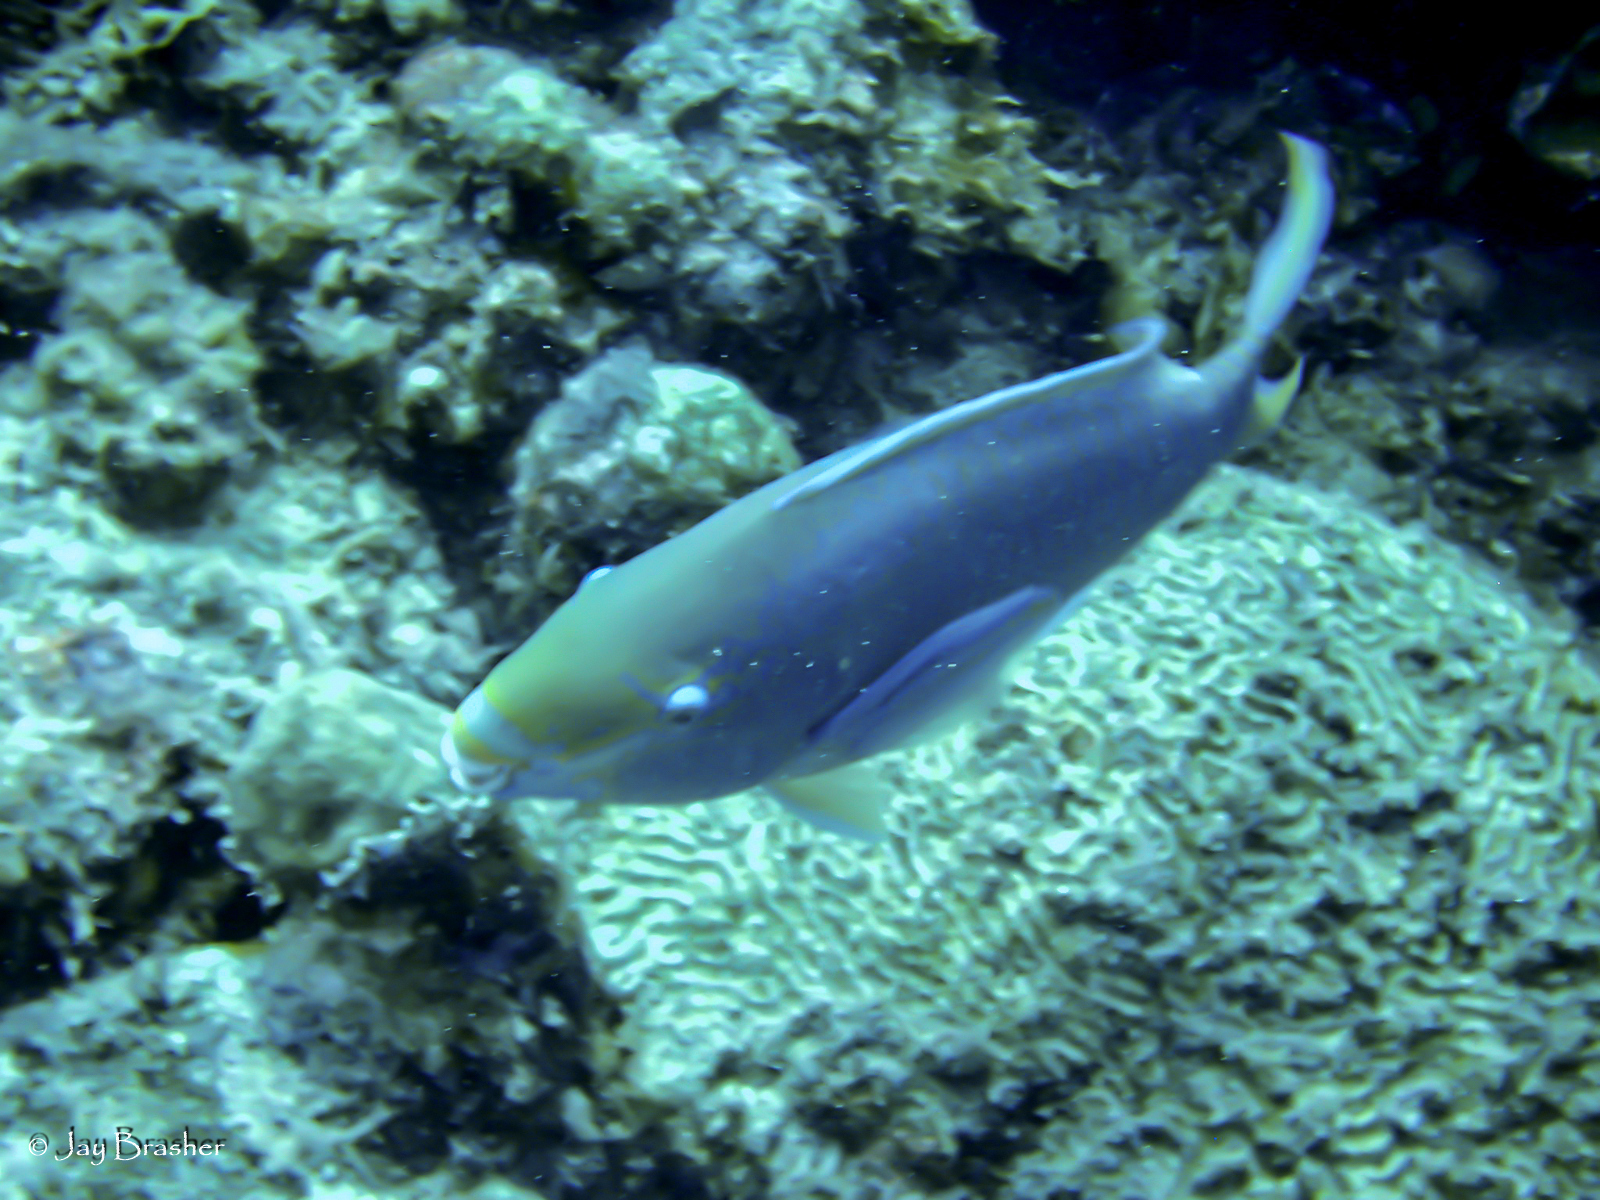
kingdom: Animalia
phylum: Chordata
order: Perciformes
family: Scaridae
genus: Scarus
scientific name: Scarus vetula
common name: Queen parrotfish
